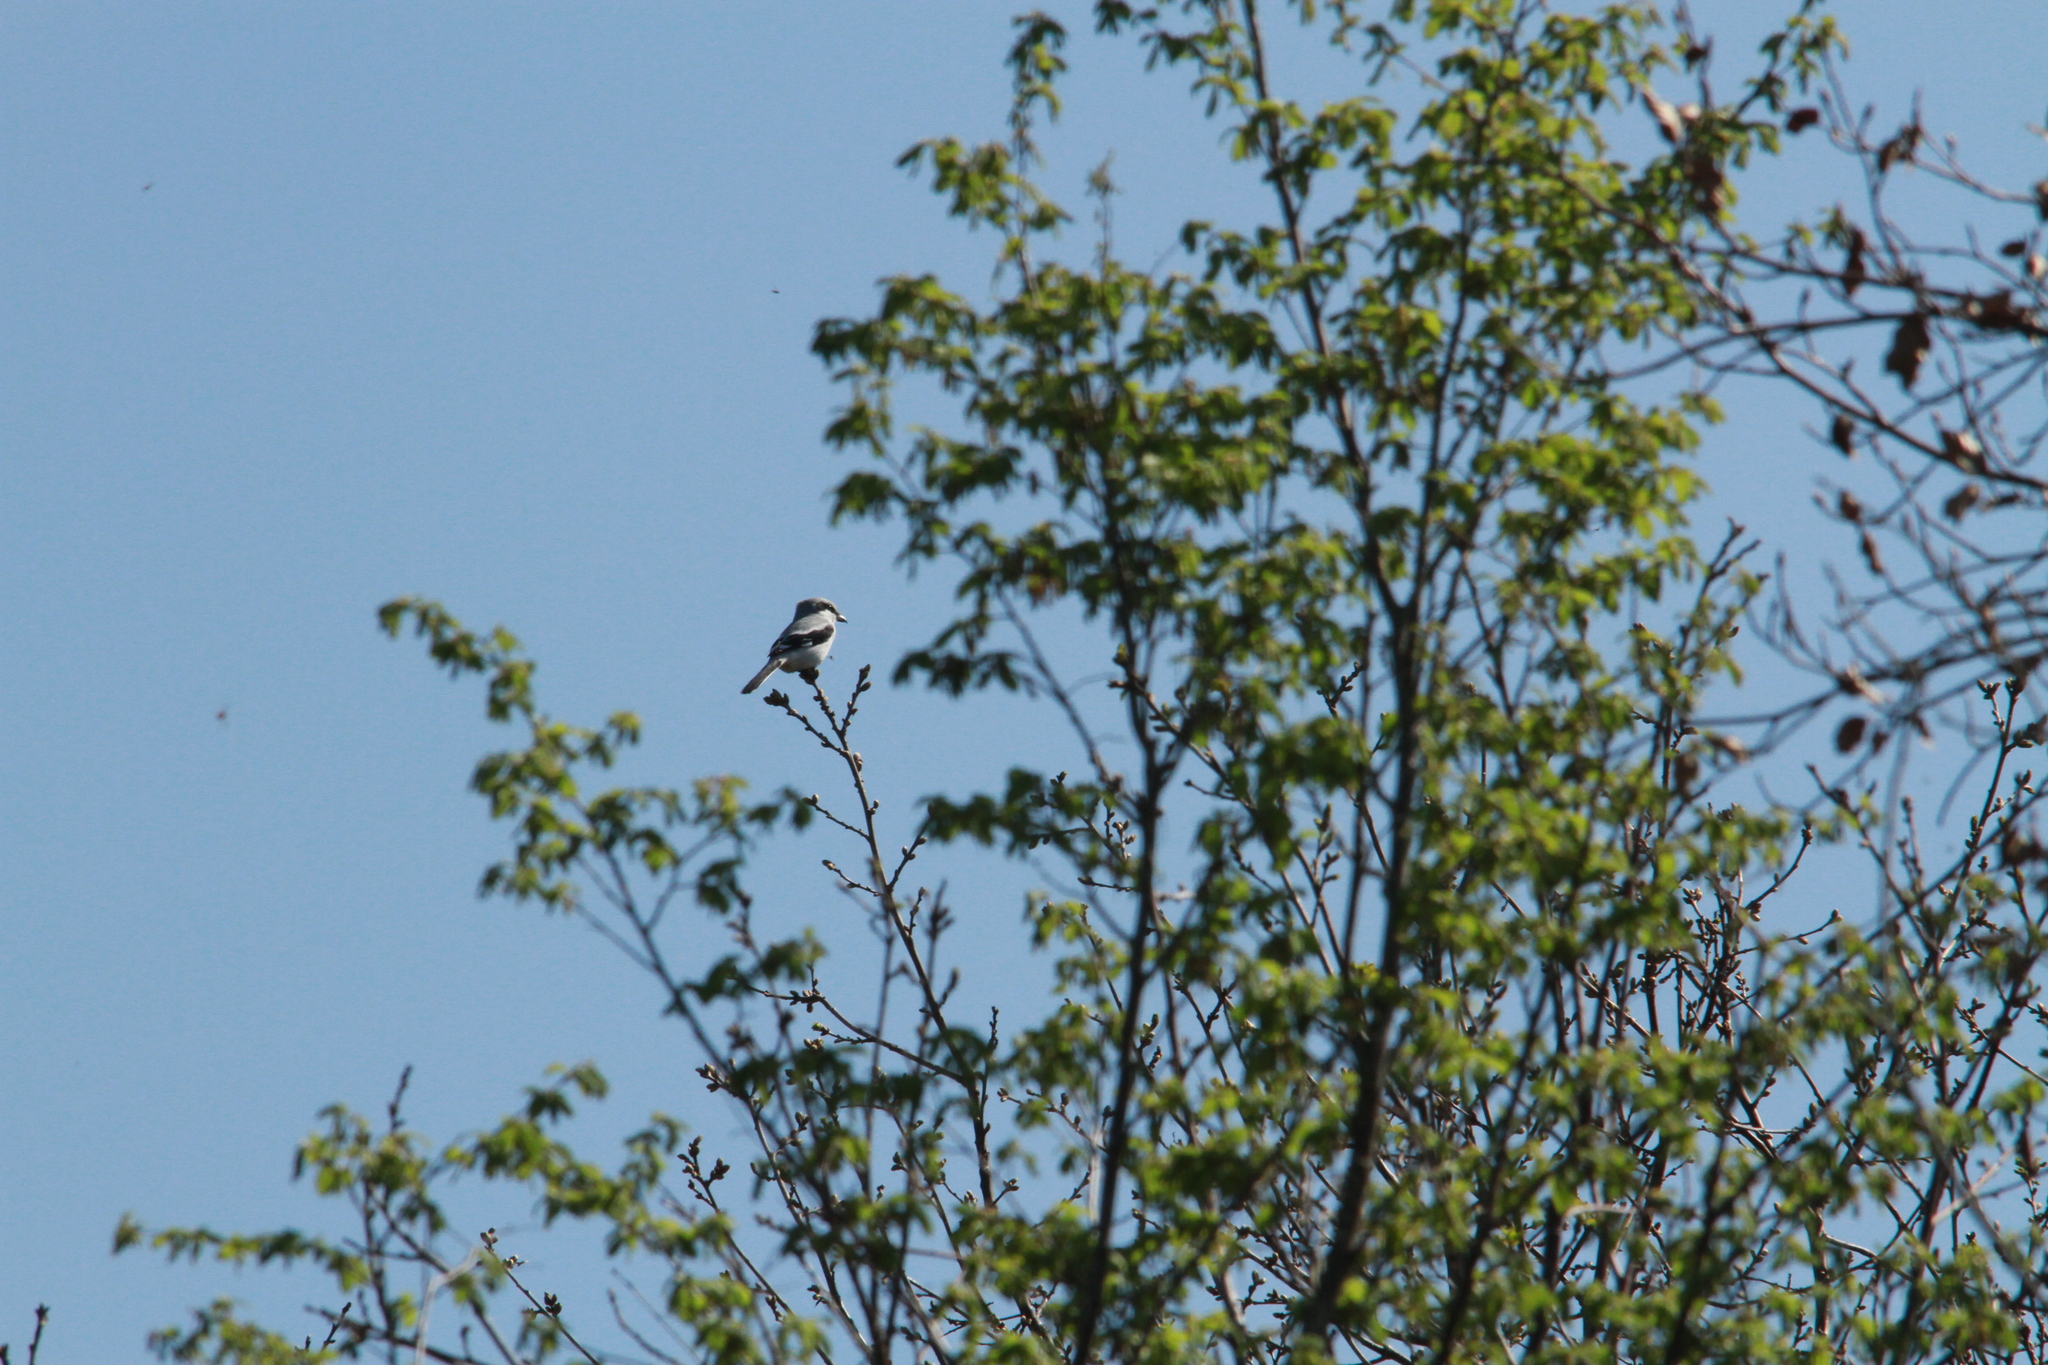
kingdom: Animalia
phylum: Chordata
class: Aves
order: Passeriformes
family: Laniidae
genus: Lanius
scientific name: Lanius excubitor
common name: Great grey shrike
